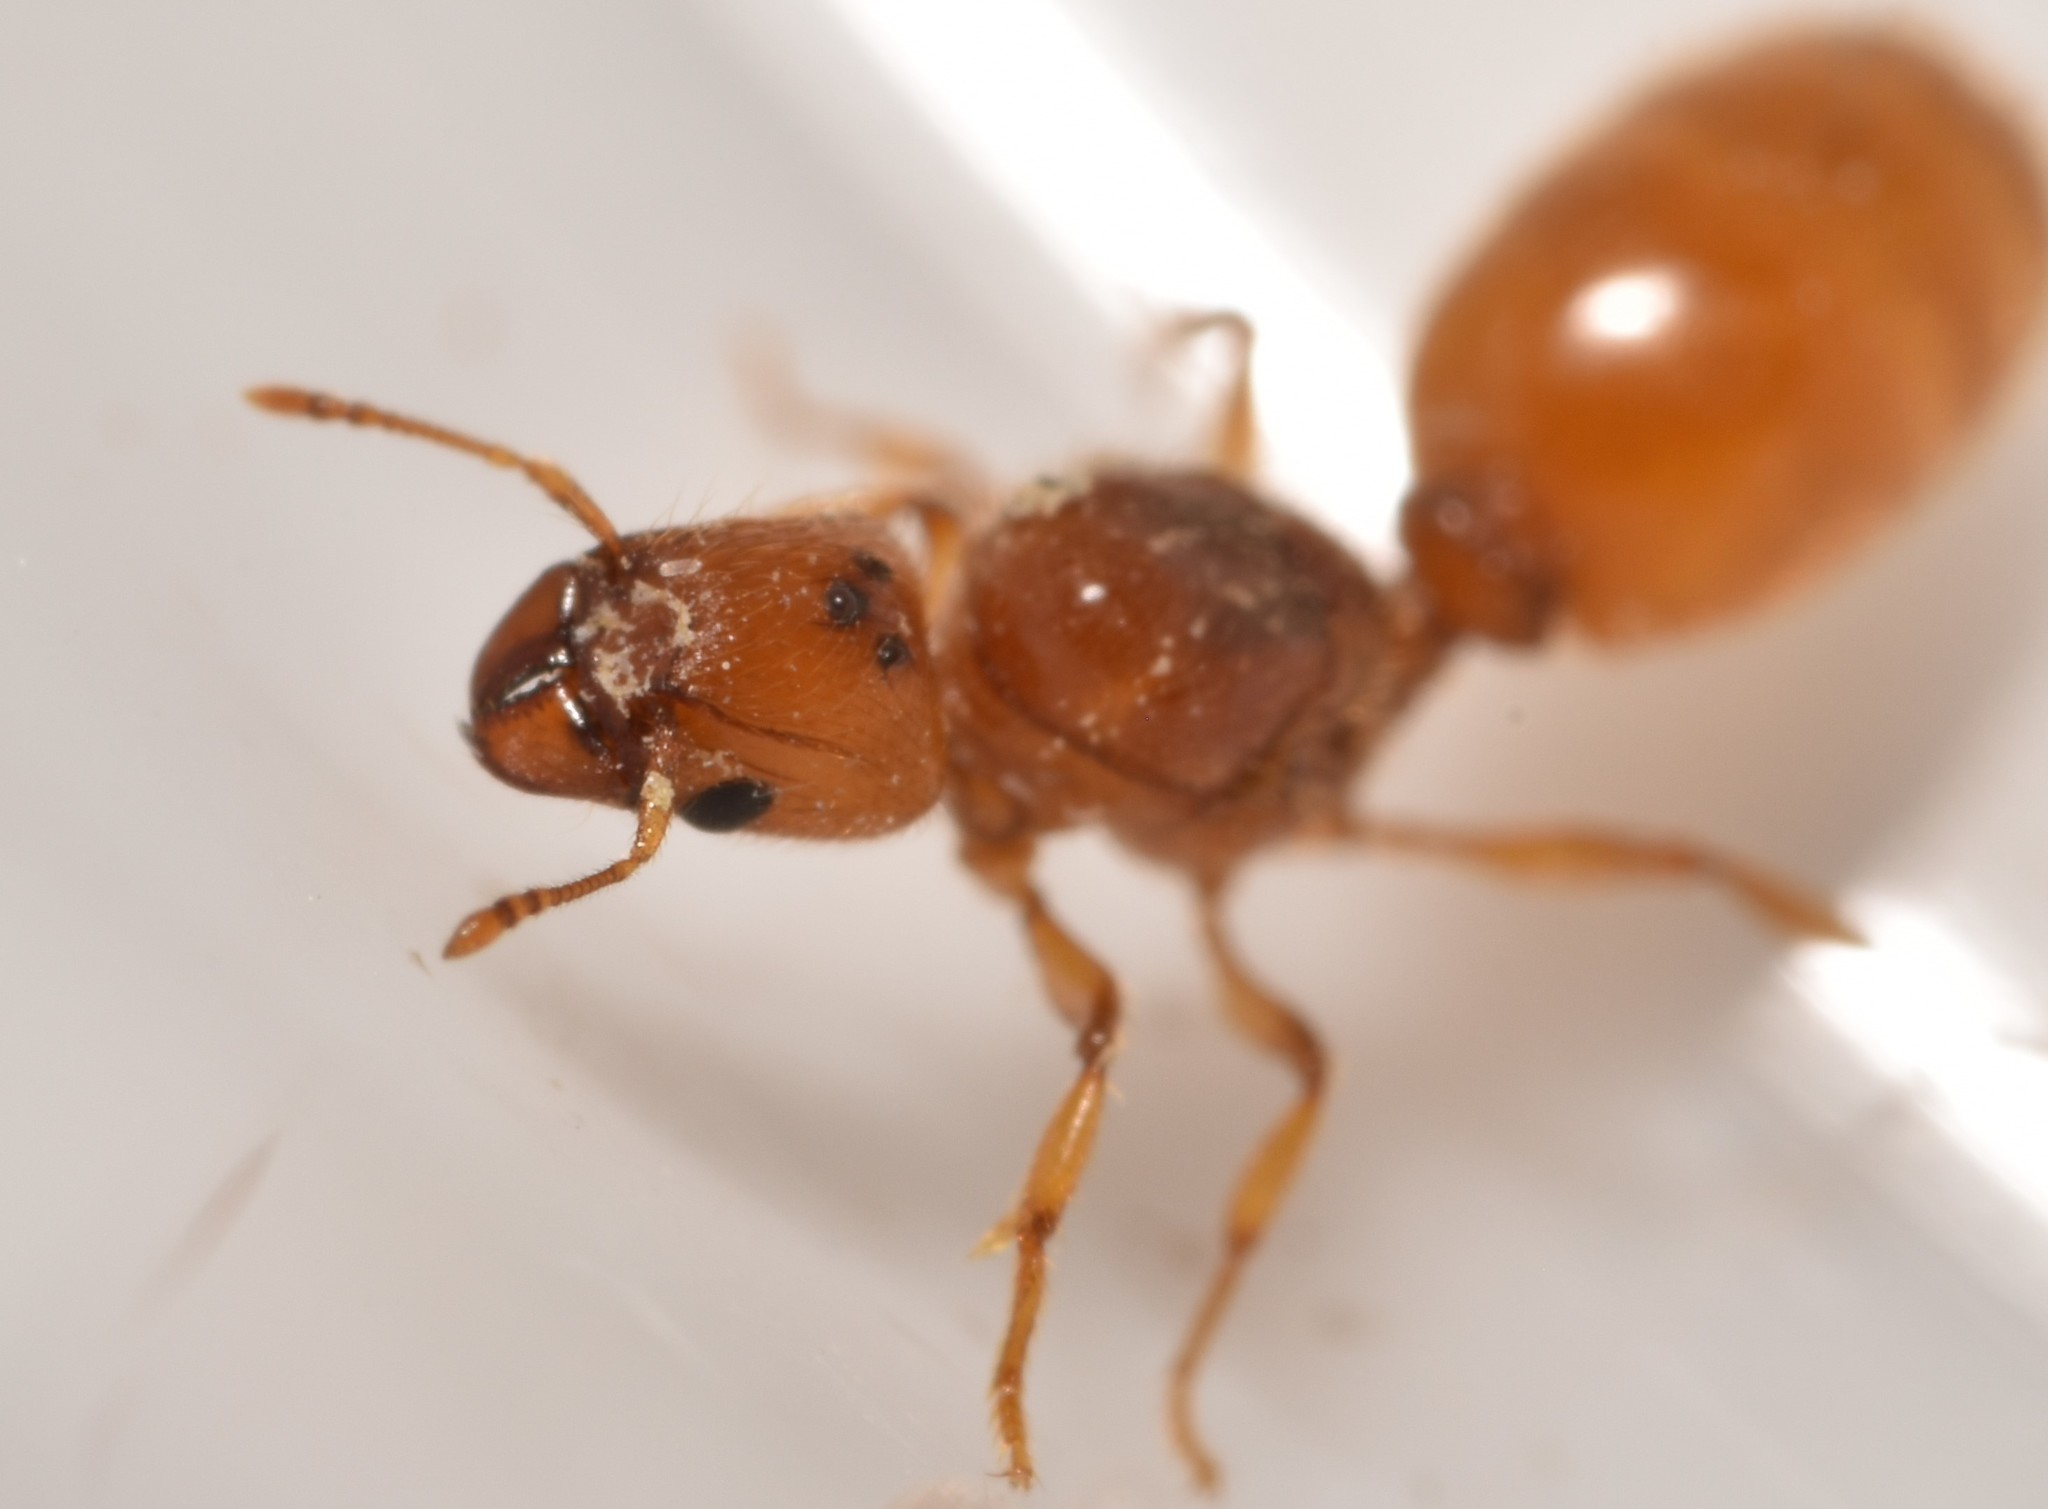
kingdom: Animalia
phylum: Arthropoda
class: Insecta
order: Hymenoptera
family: Formicidae
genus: Pheidole
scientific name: Pheidole lamia
